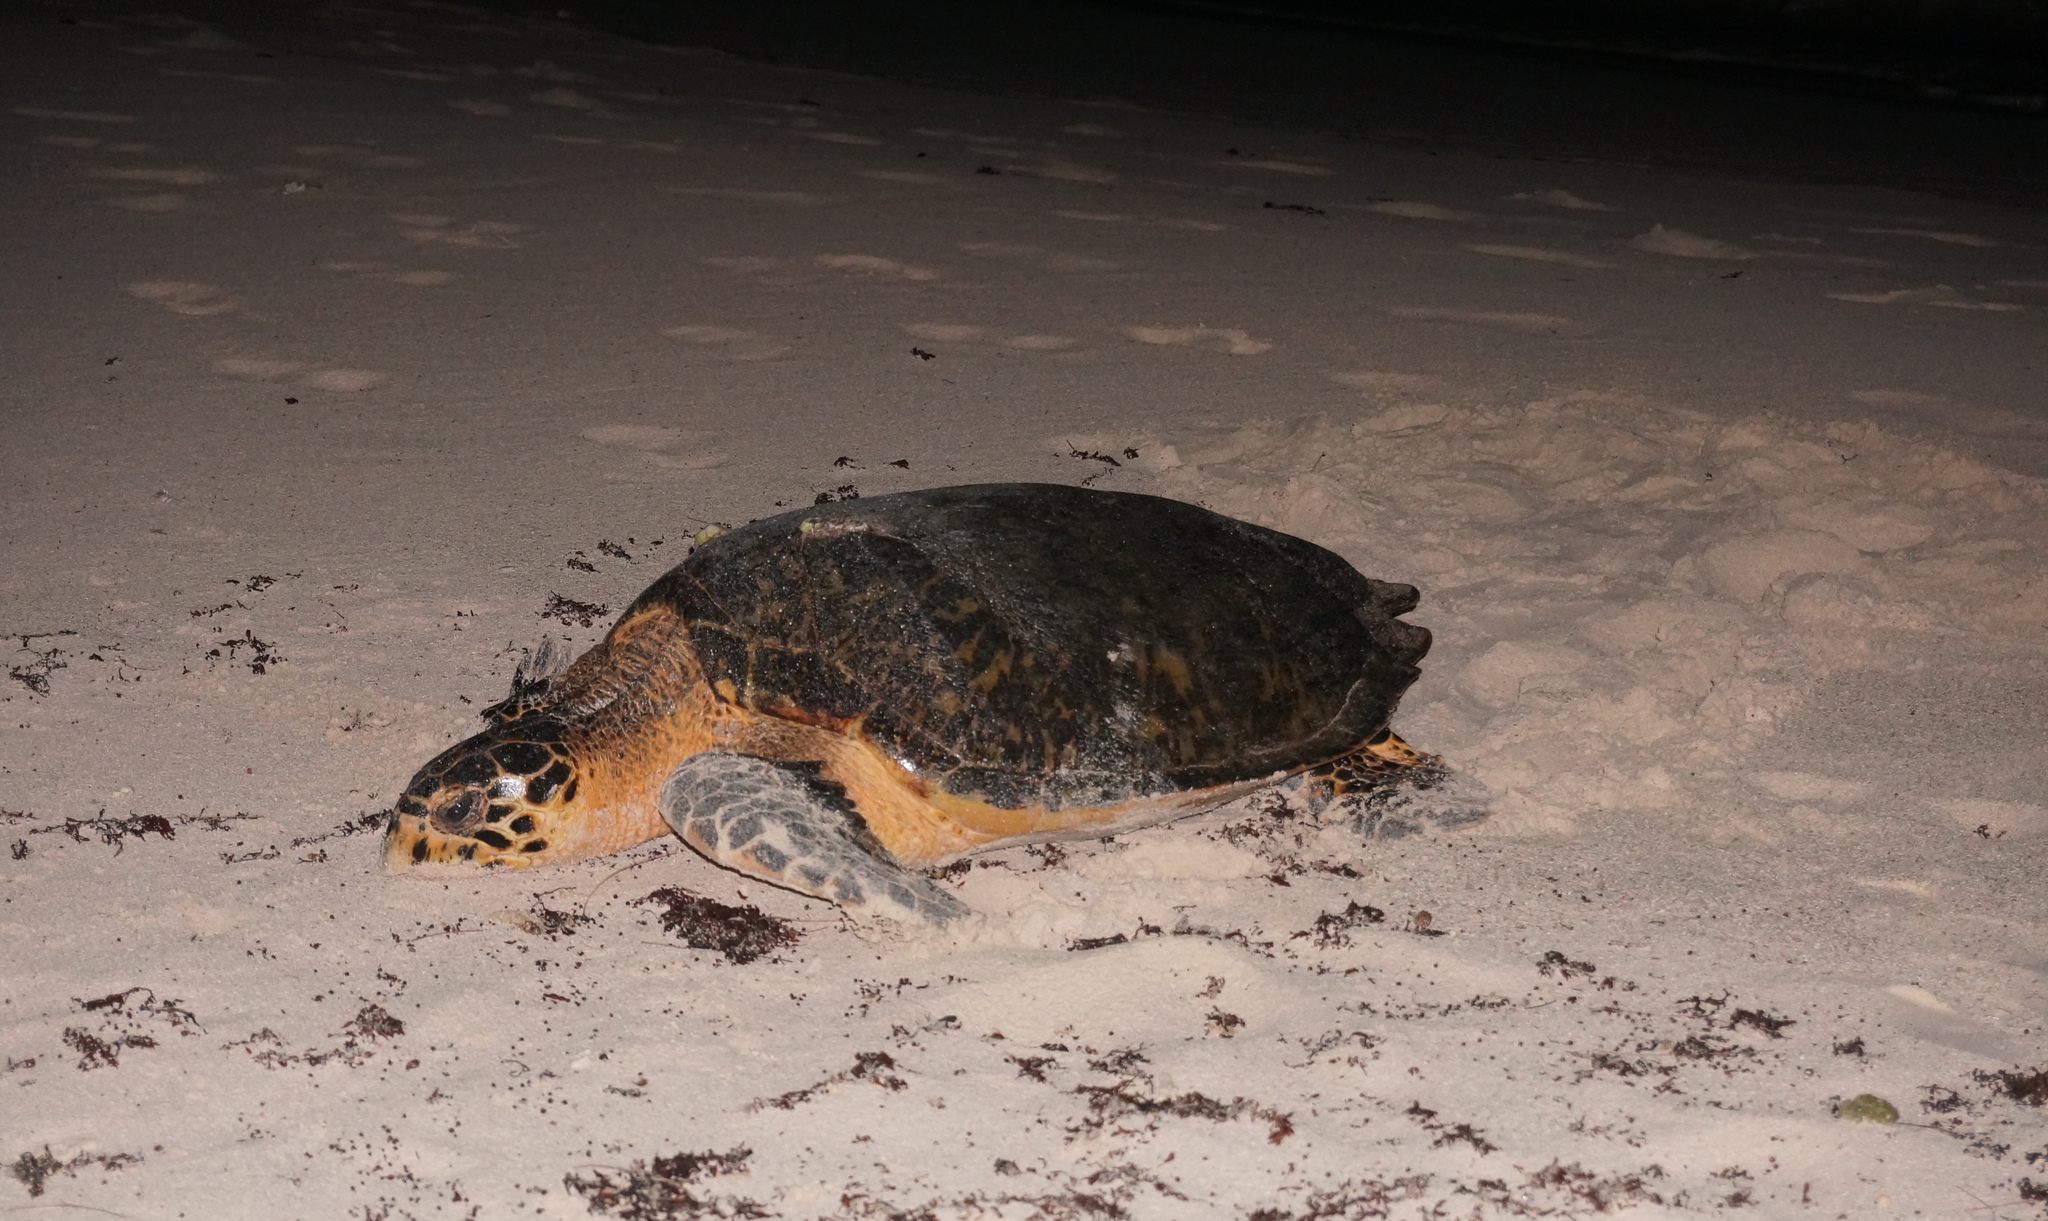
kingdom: Animalia
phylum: Chordata
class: Testudines
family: Cheloniidae
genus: Eretmochelys
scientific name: Eretmochelys imbricata
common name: Hawksbill turtle
